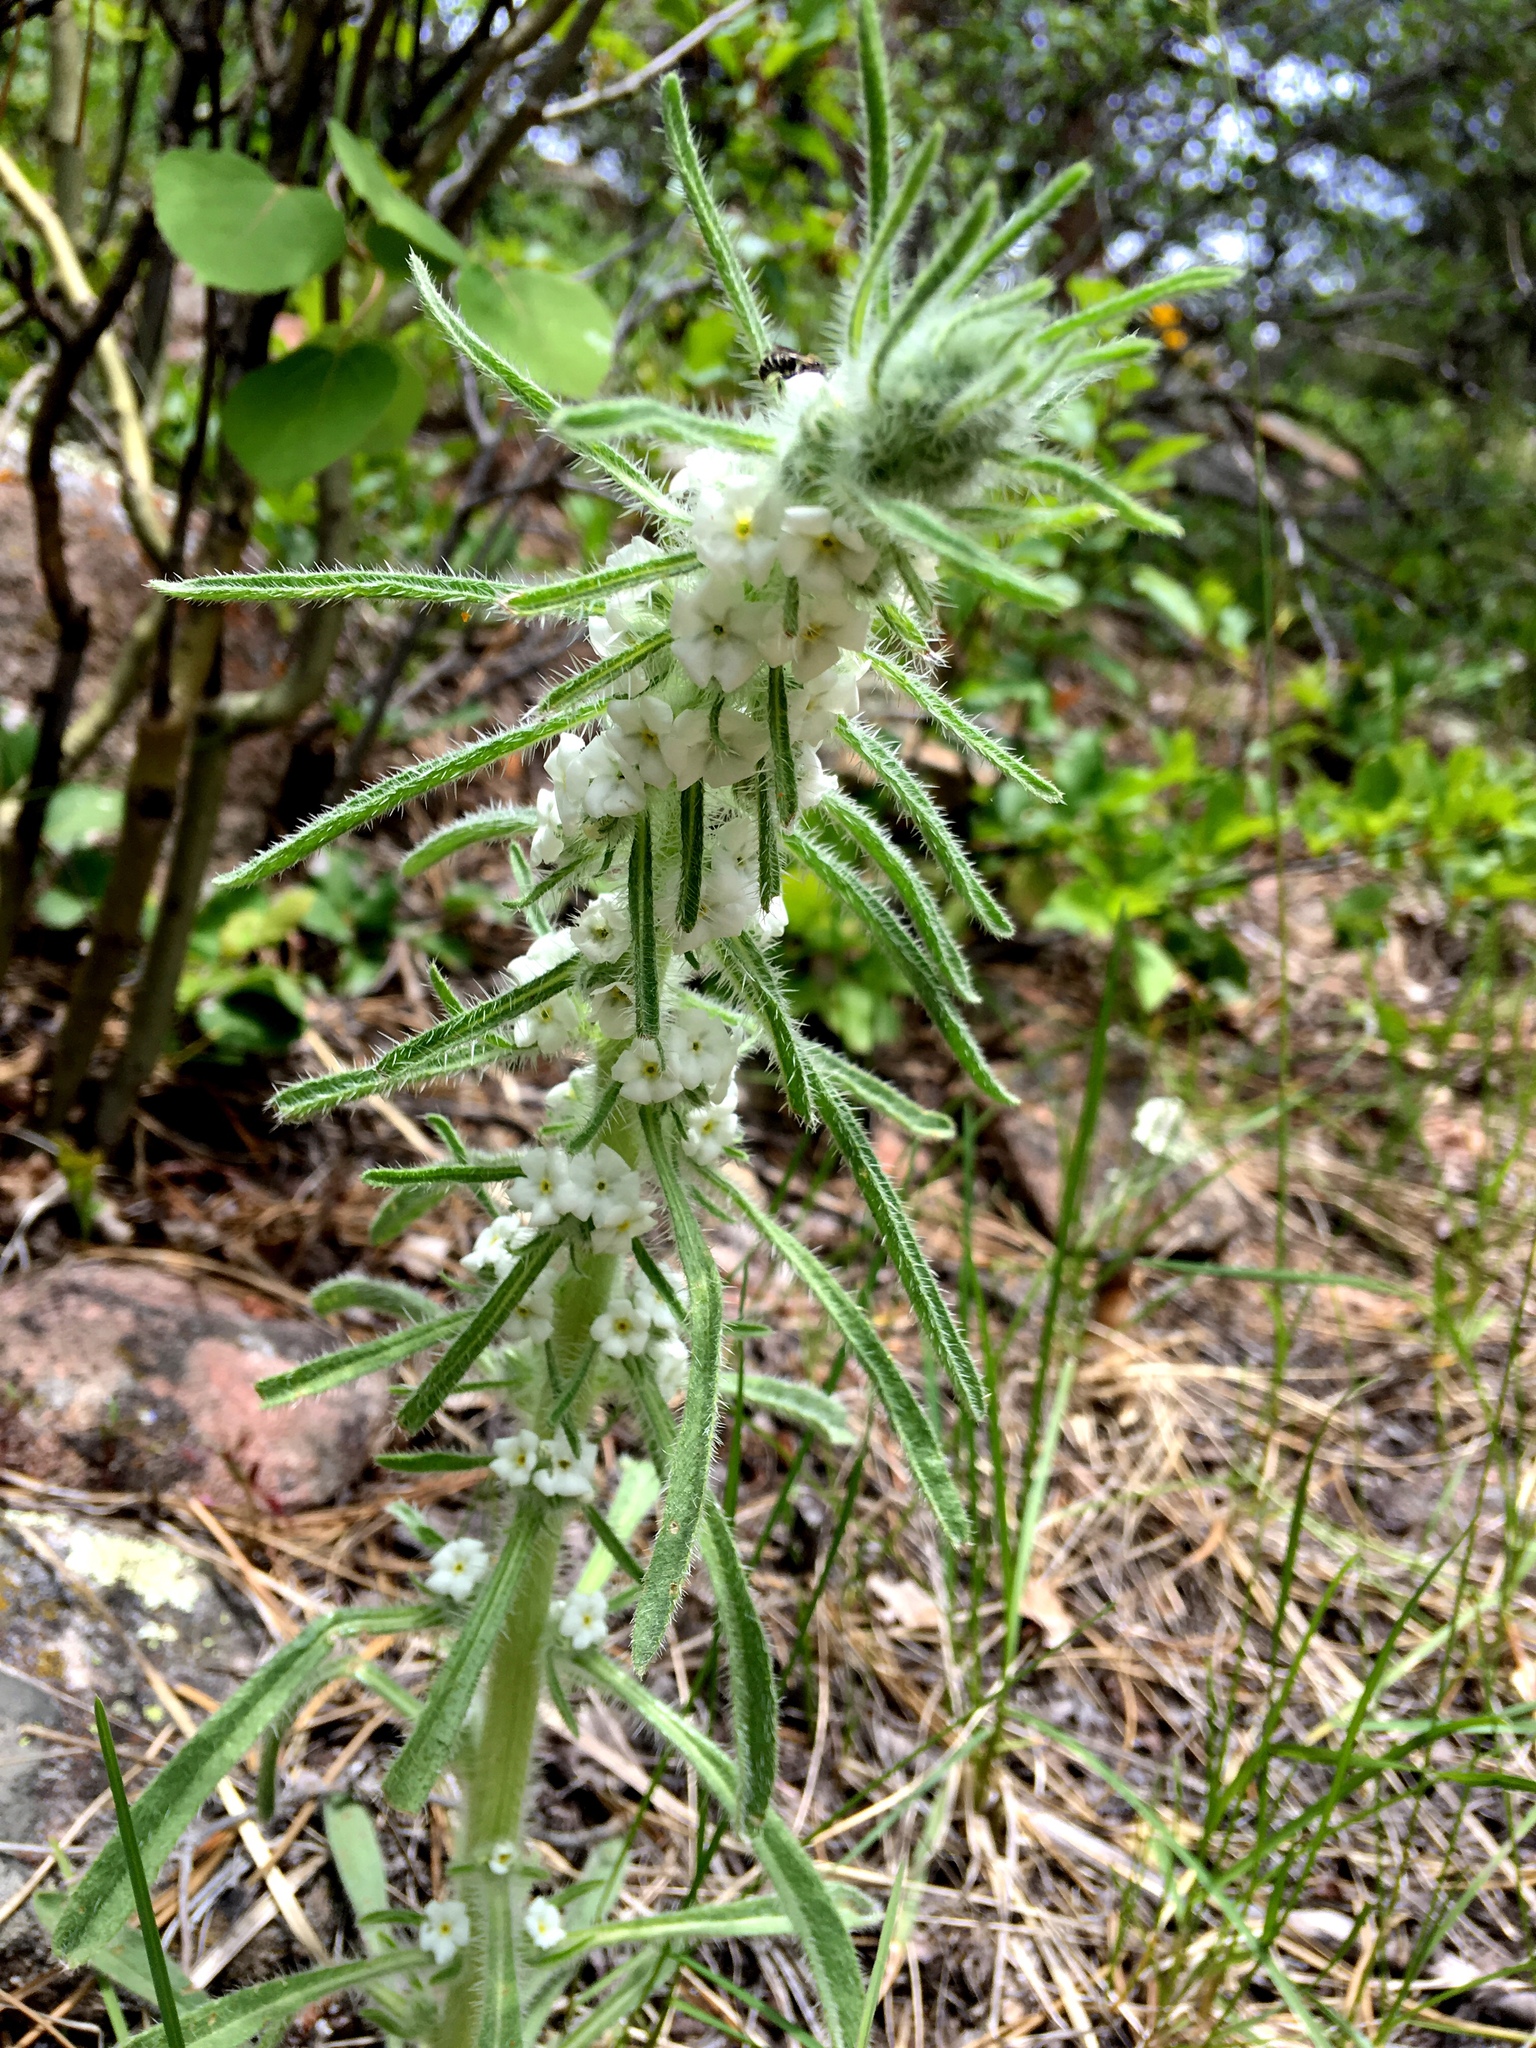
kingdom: Plantae
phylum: Tracheophyta
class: Magnoliopsida
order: Boraginales
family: Boraginaceae
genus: Oreocarya
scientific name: Oreocarya virgata
